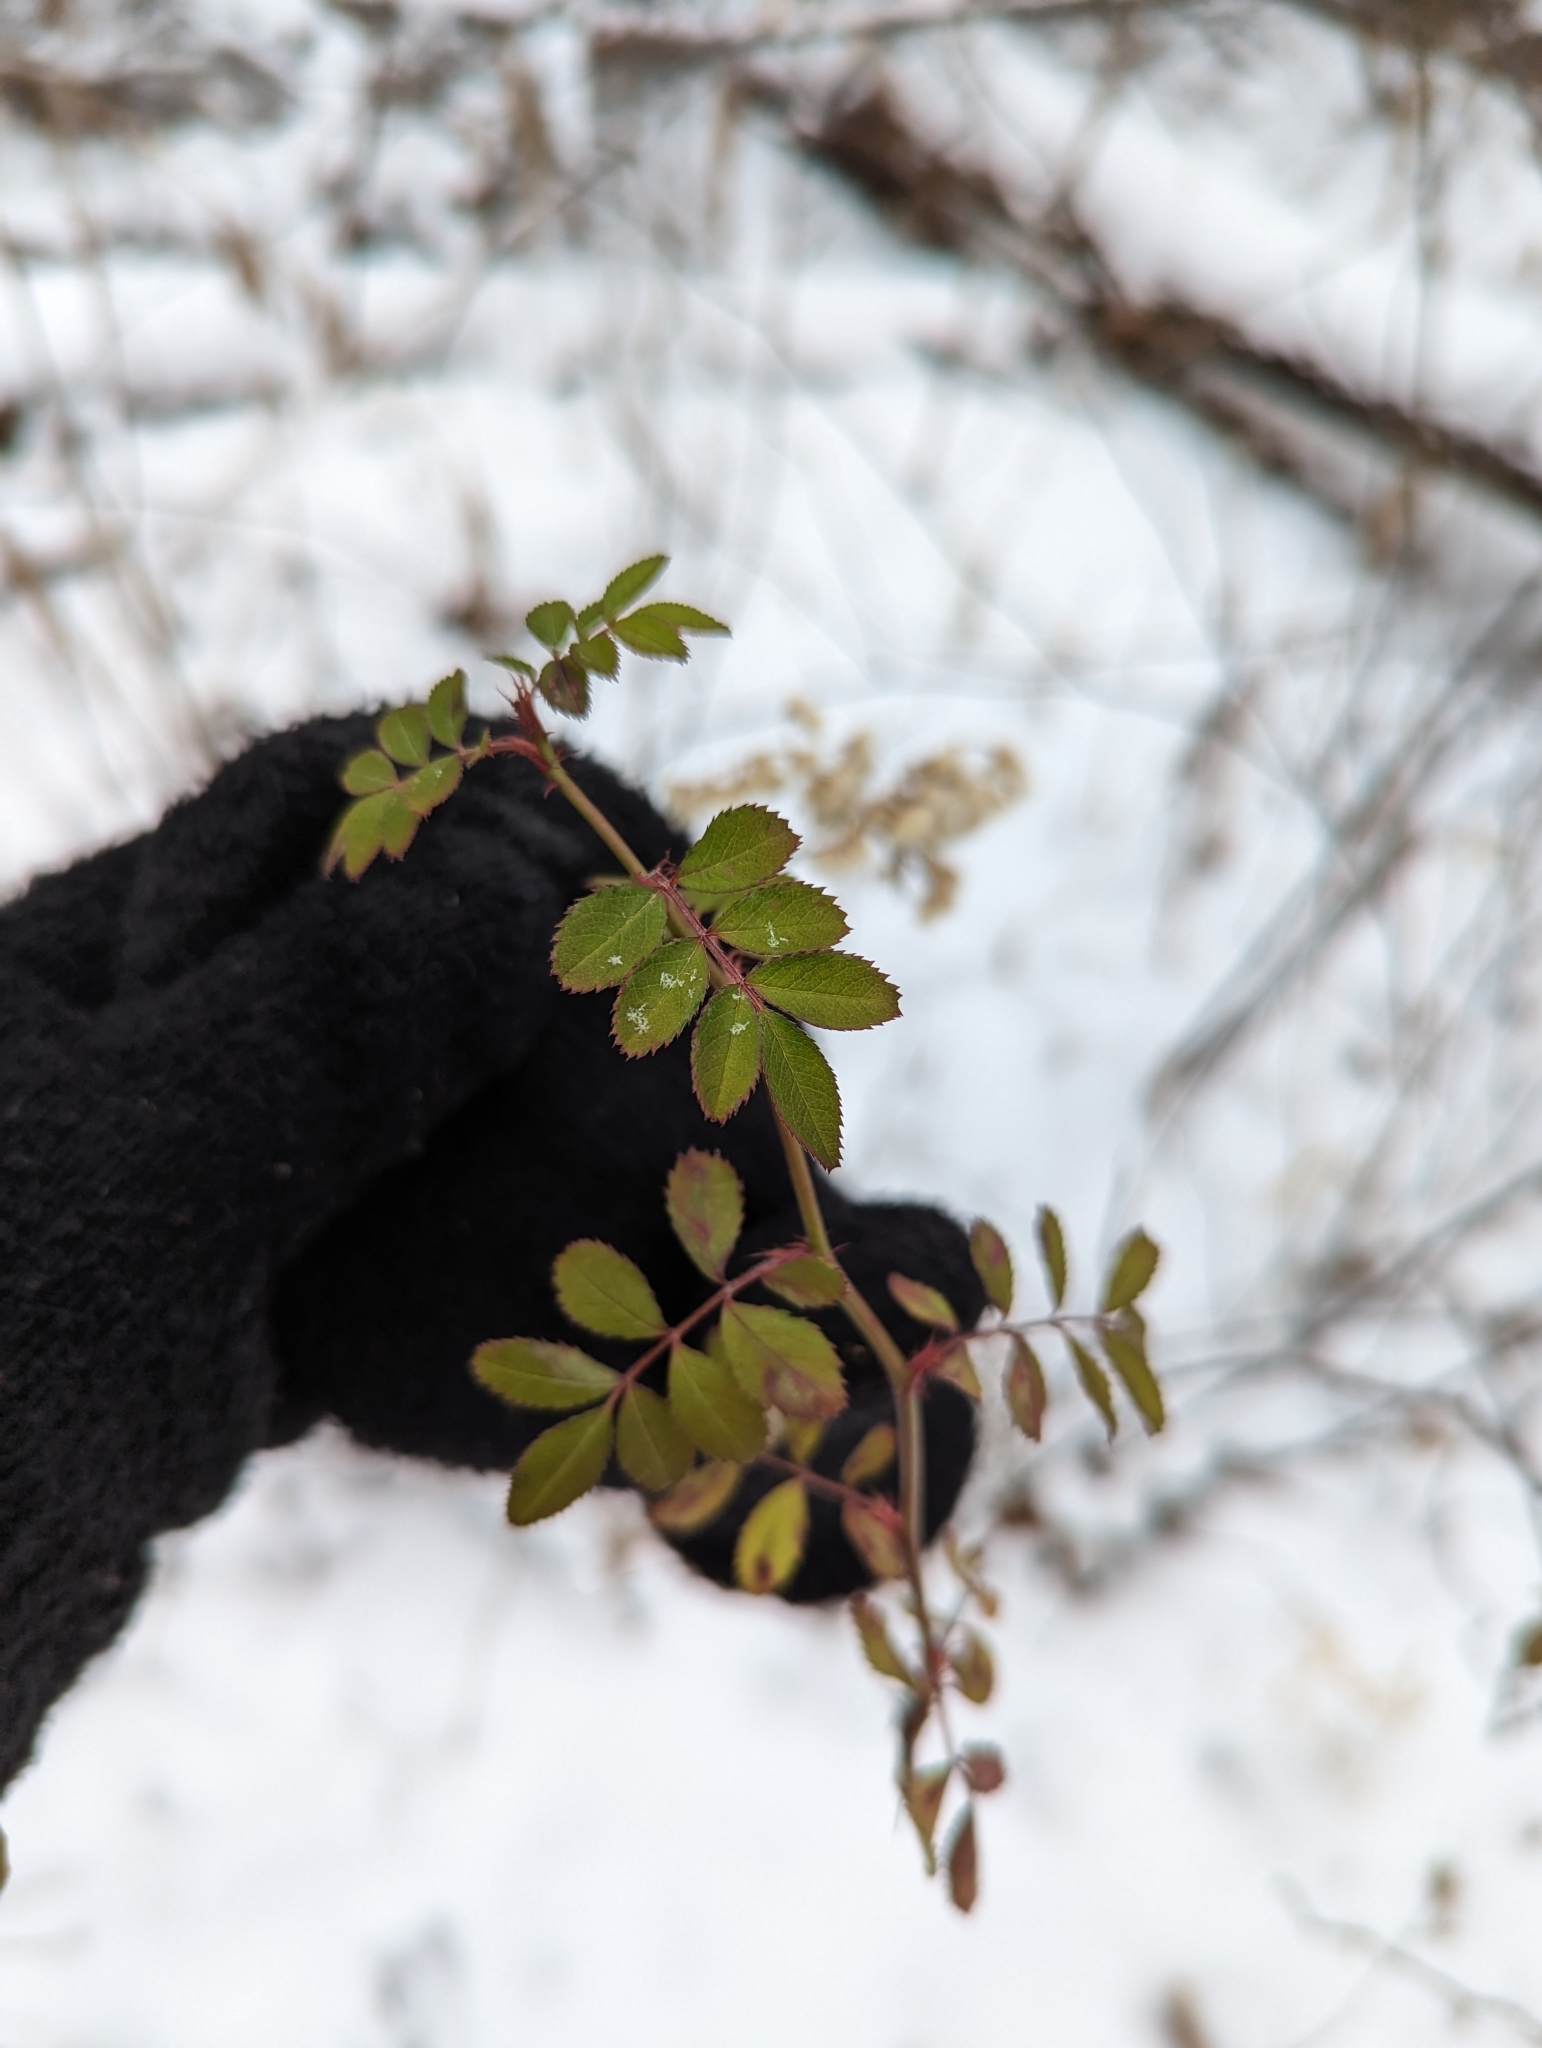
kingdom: Plantae
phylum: Tracheophyta
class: Magnoliopsida
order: Rosales
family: Rosaceae
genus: Rosa
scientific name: Rosa multiflora
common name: Multiflora rose
